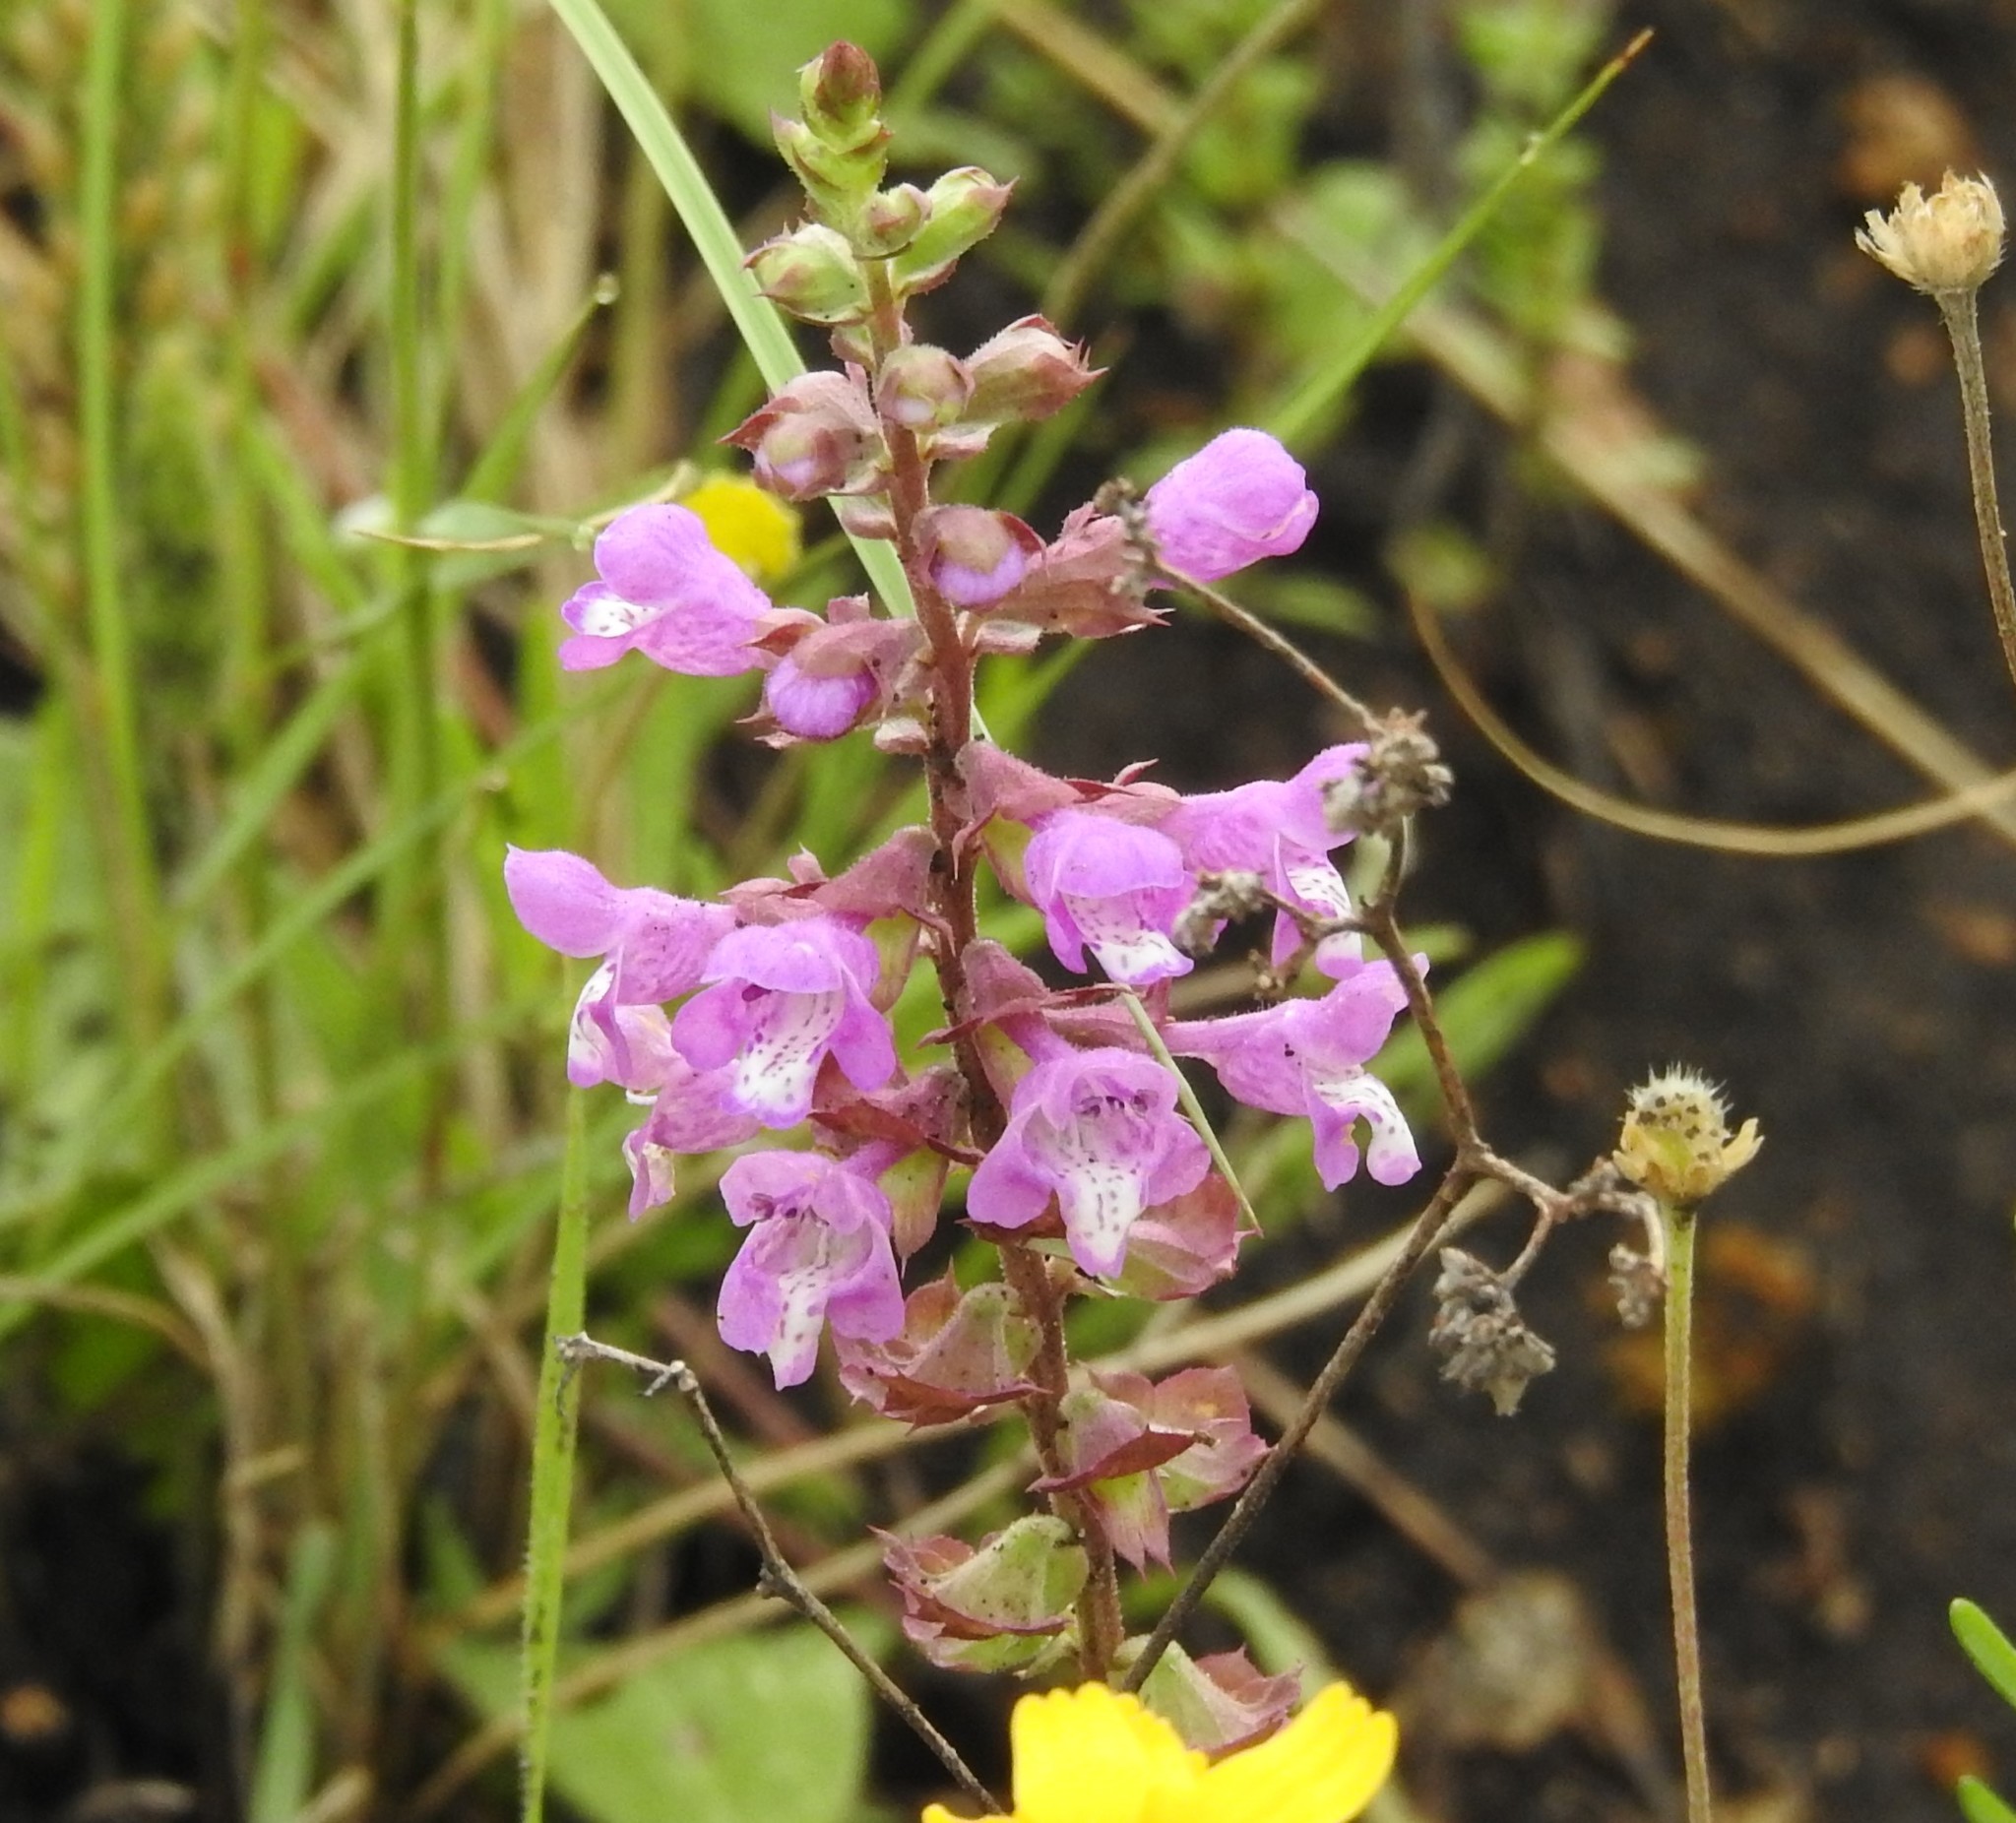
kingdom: Plantae
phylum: Tracheophyta
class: Magnoliopsida
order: Lamiales
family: Lamiaceae
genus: Warnockia
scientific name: Warnockia scutellarioides
